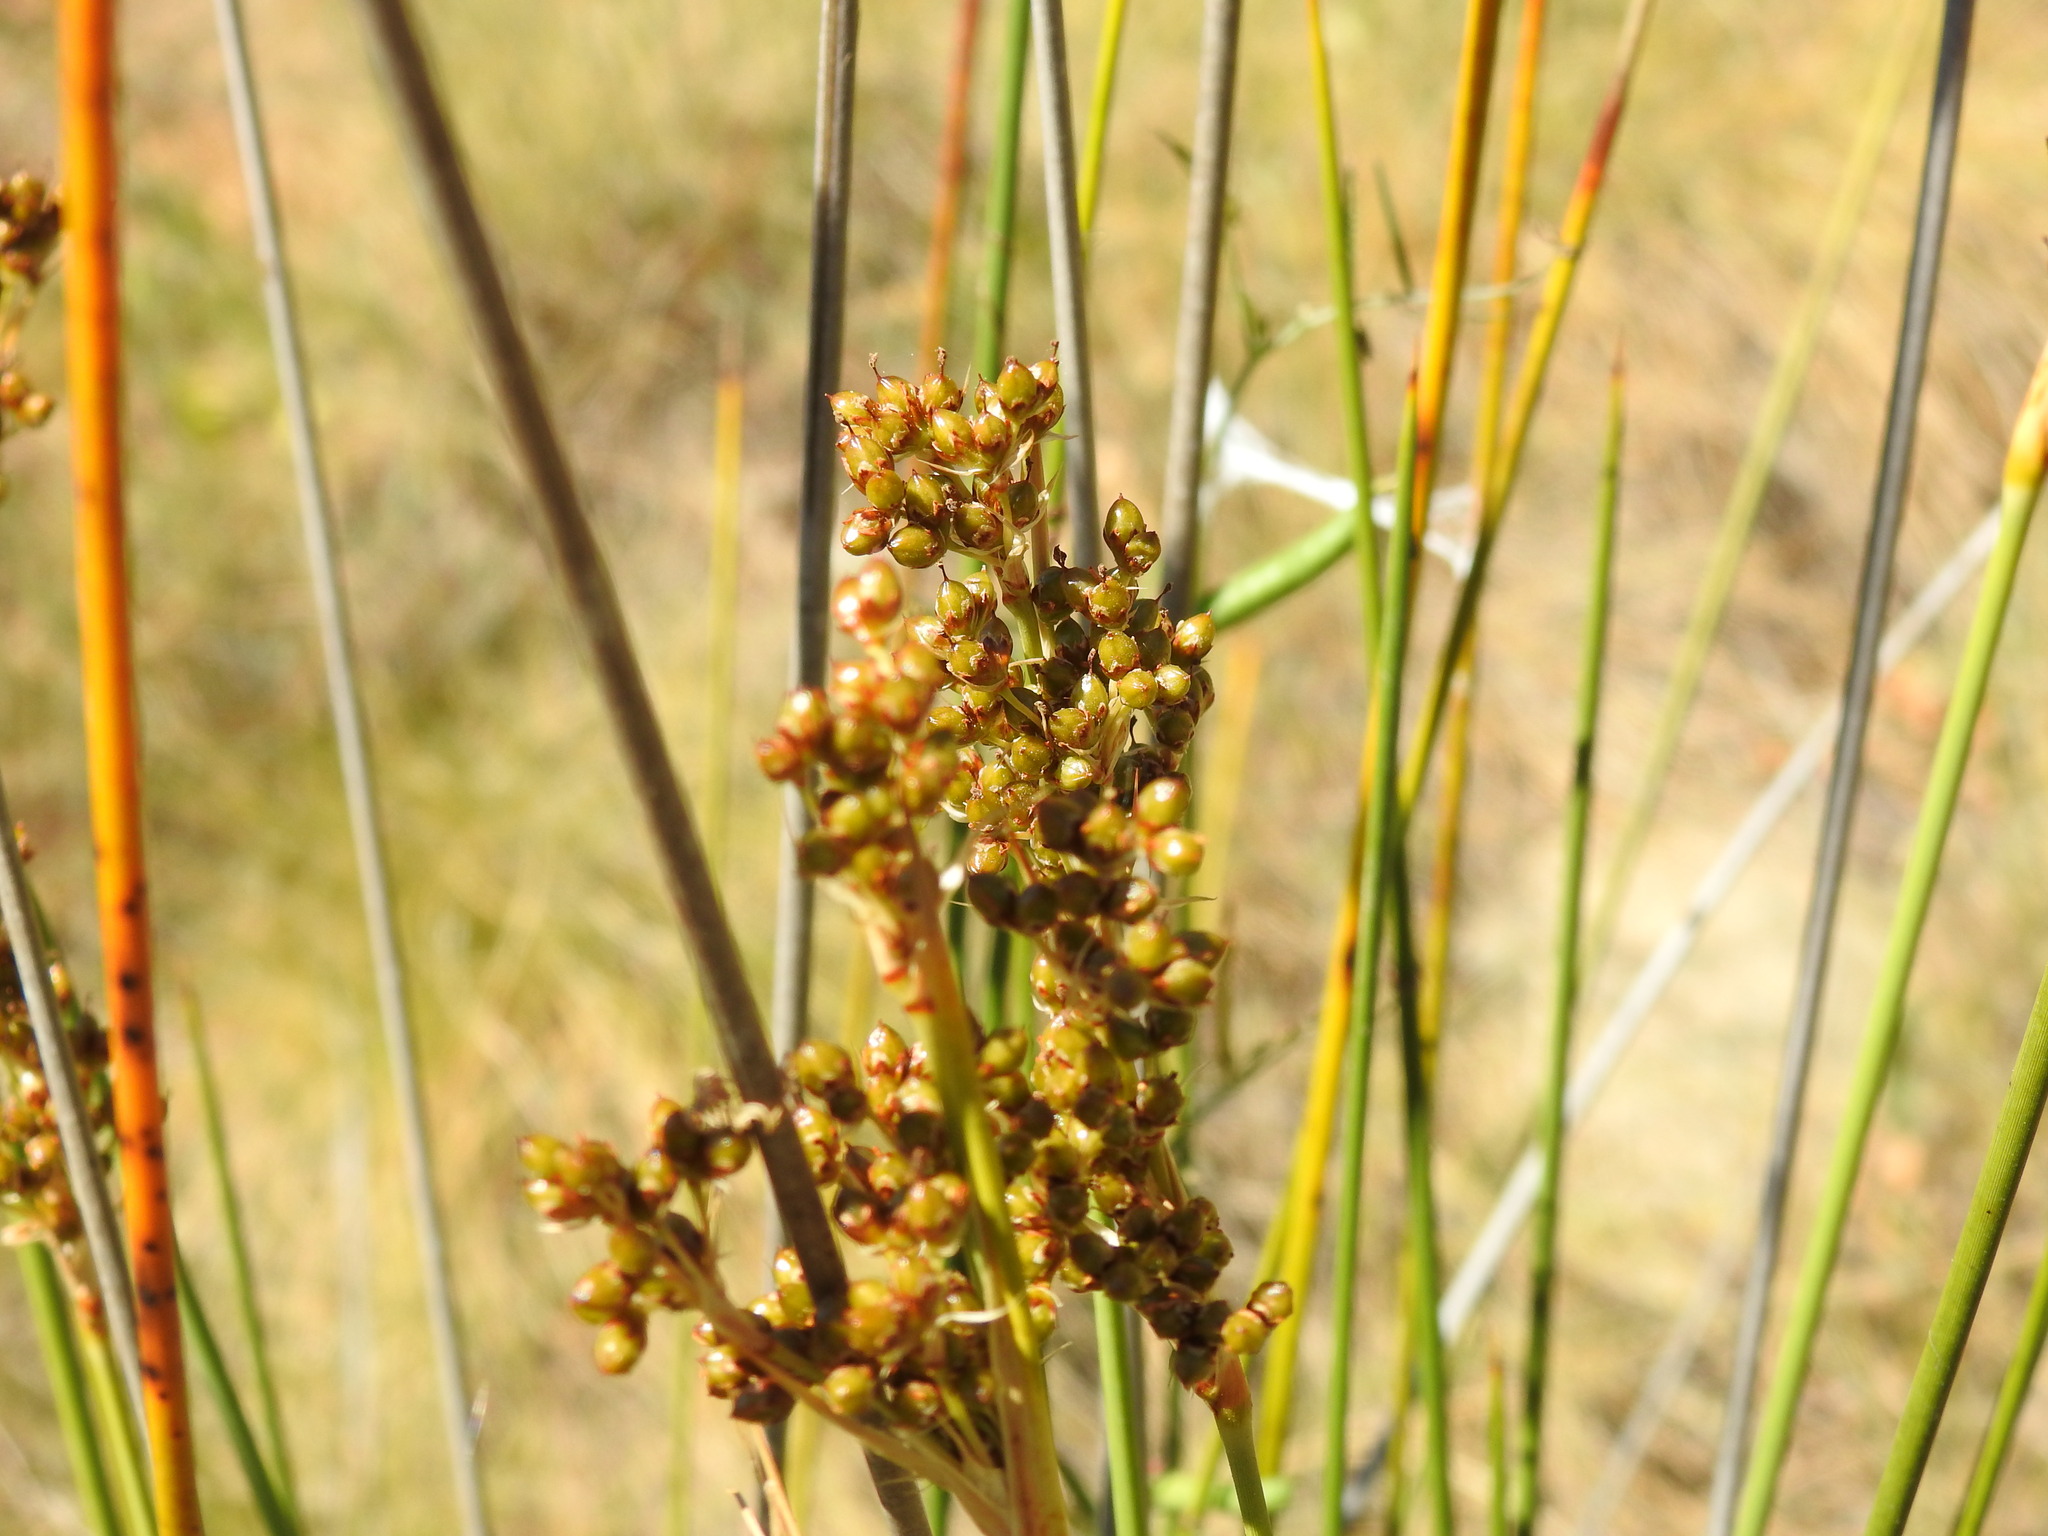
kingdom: Plantae
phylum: Tracheophyta
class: Liliopsida
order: Poales
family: Juncaceae
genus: Juncus
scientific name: Juncus acutus
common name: Sharp rush
